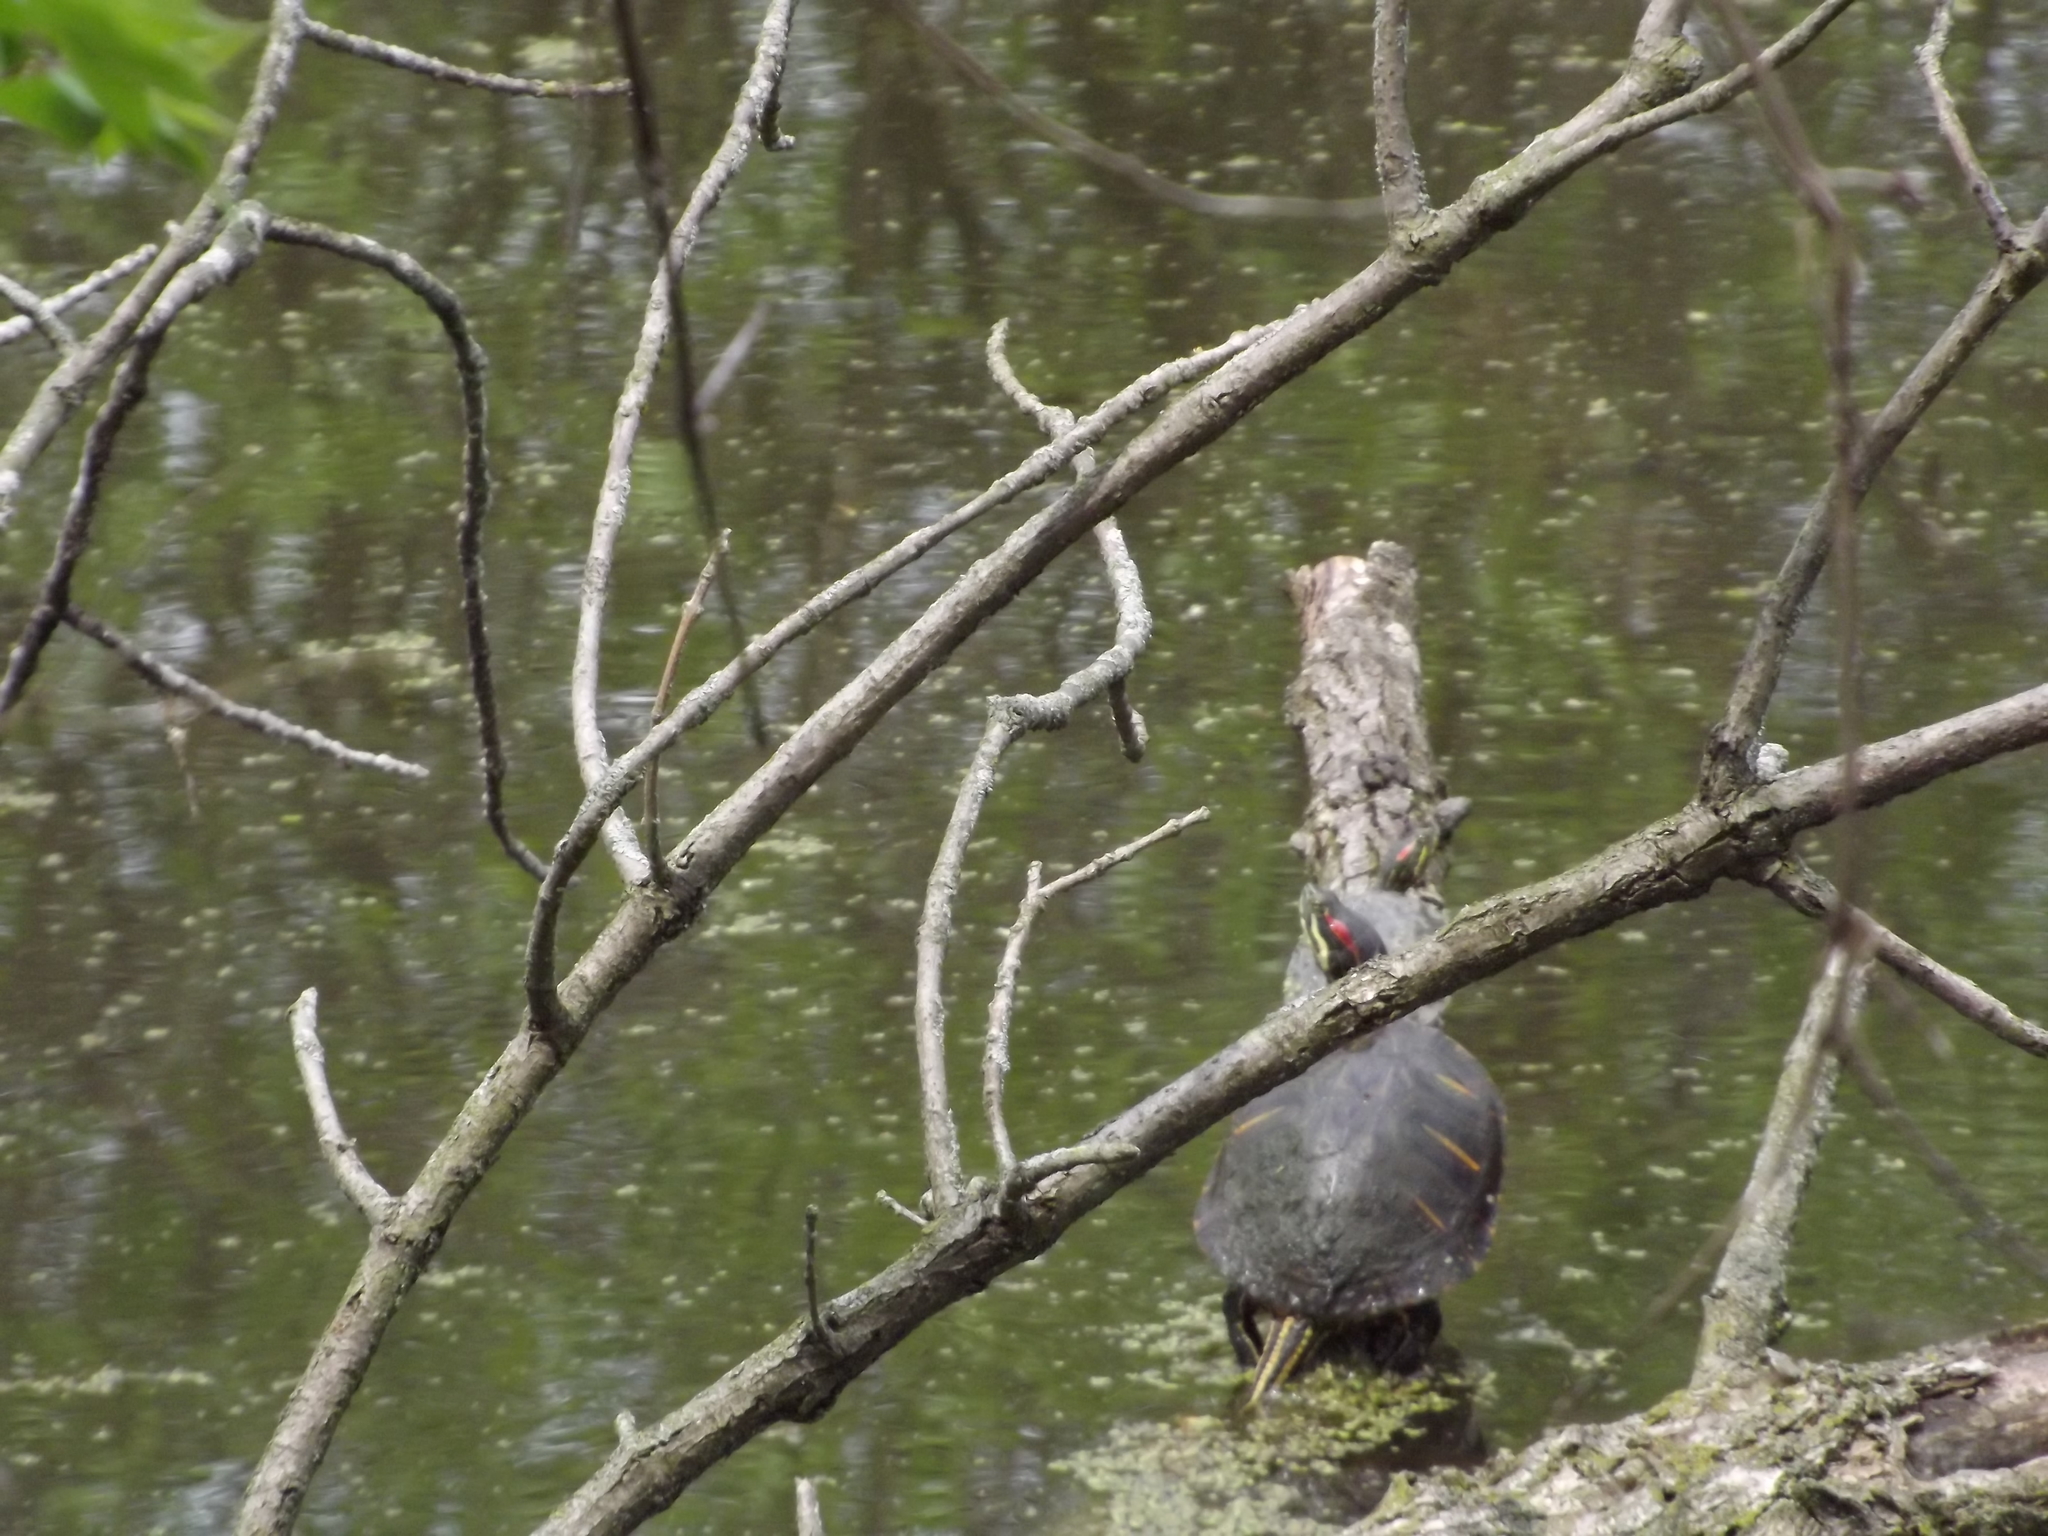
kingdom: Animalia
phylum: Chordata
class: Testudines
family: Emydidae
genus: Trachemys
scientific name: Trachemys scripta
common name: Slider
